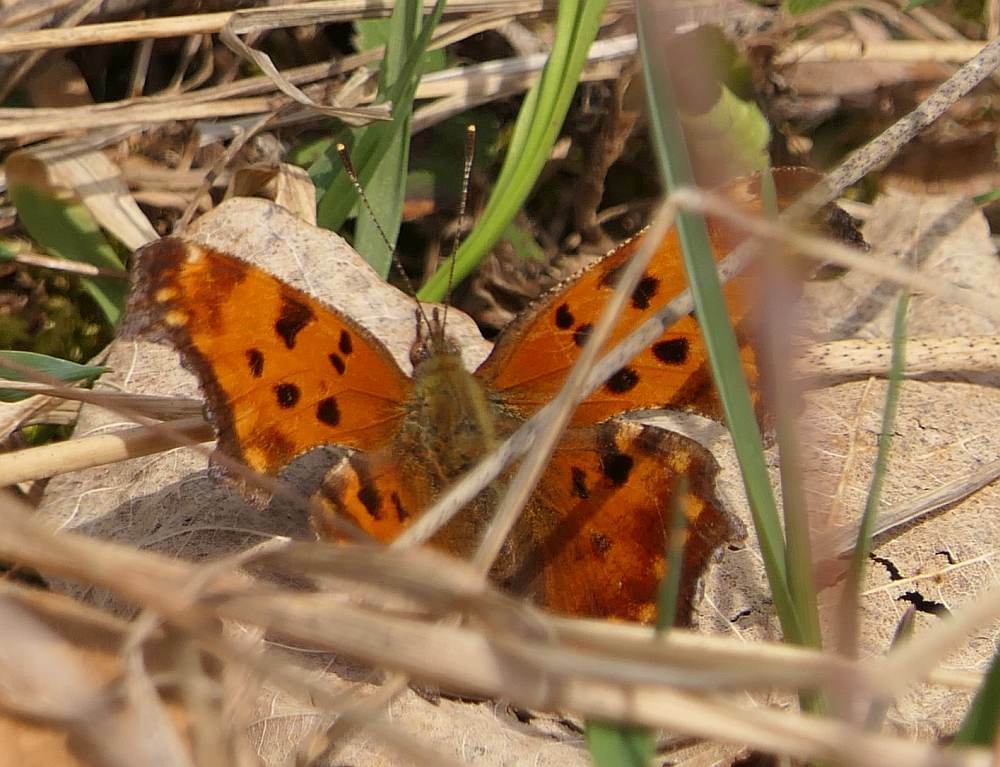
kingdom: Animalia
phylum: Arthropoda
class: Insecta
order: Lepidoptera
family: Nymphalidae
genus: Polygonia
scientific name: Polygonia comma
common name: Eastern comma
